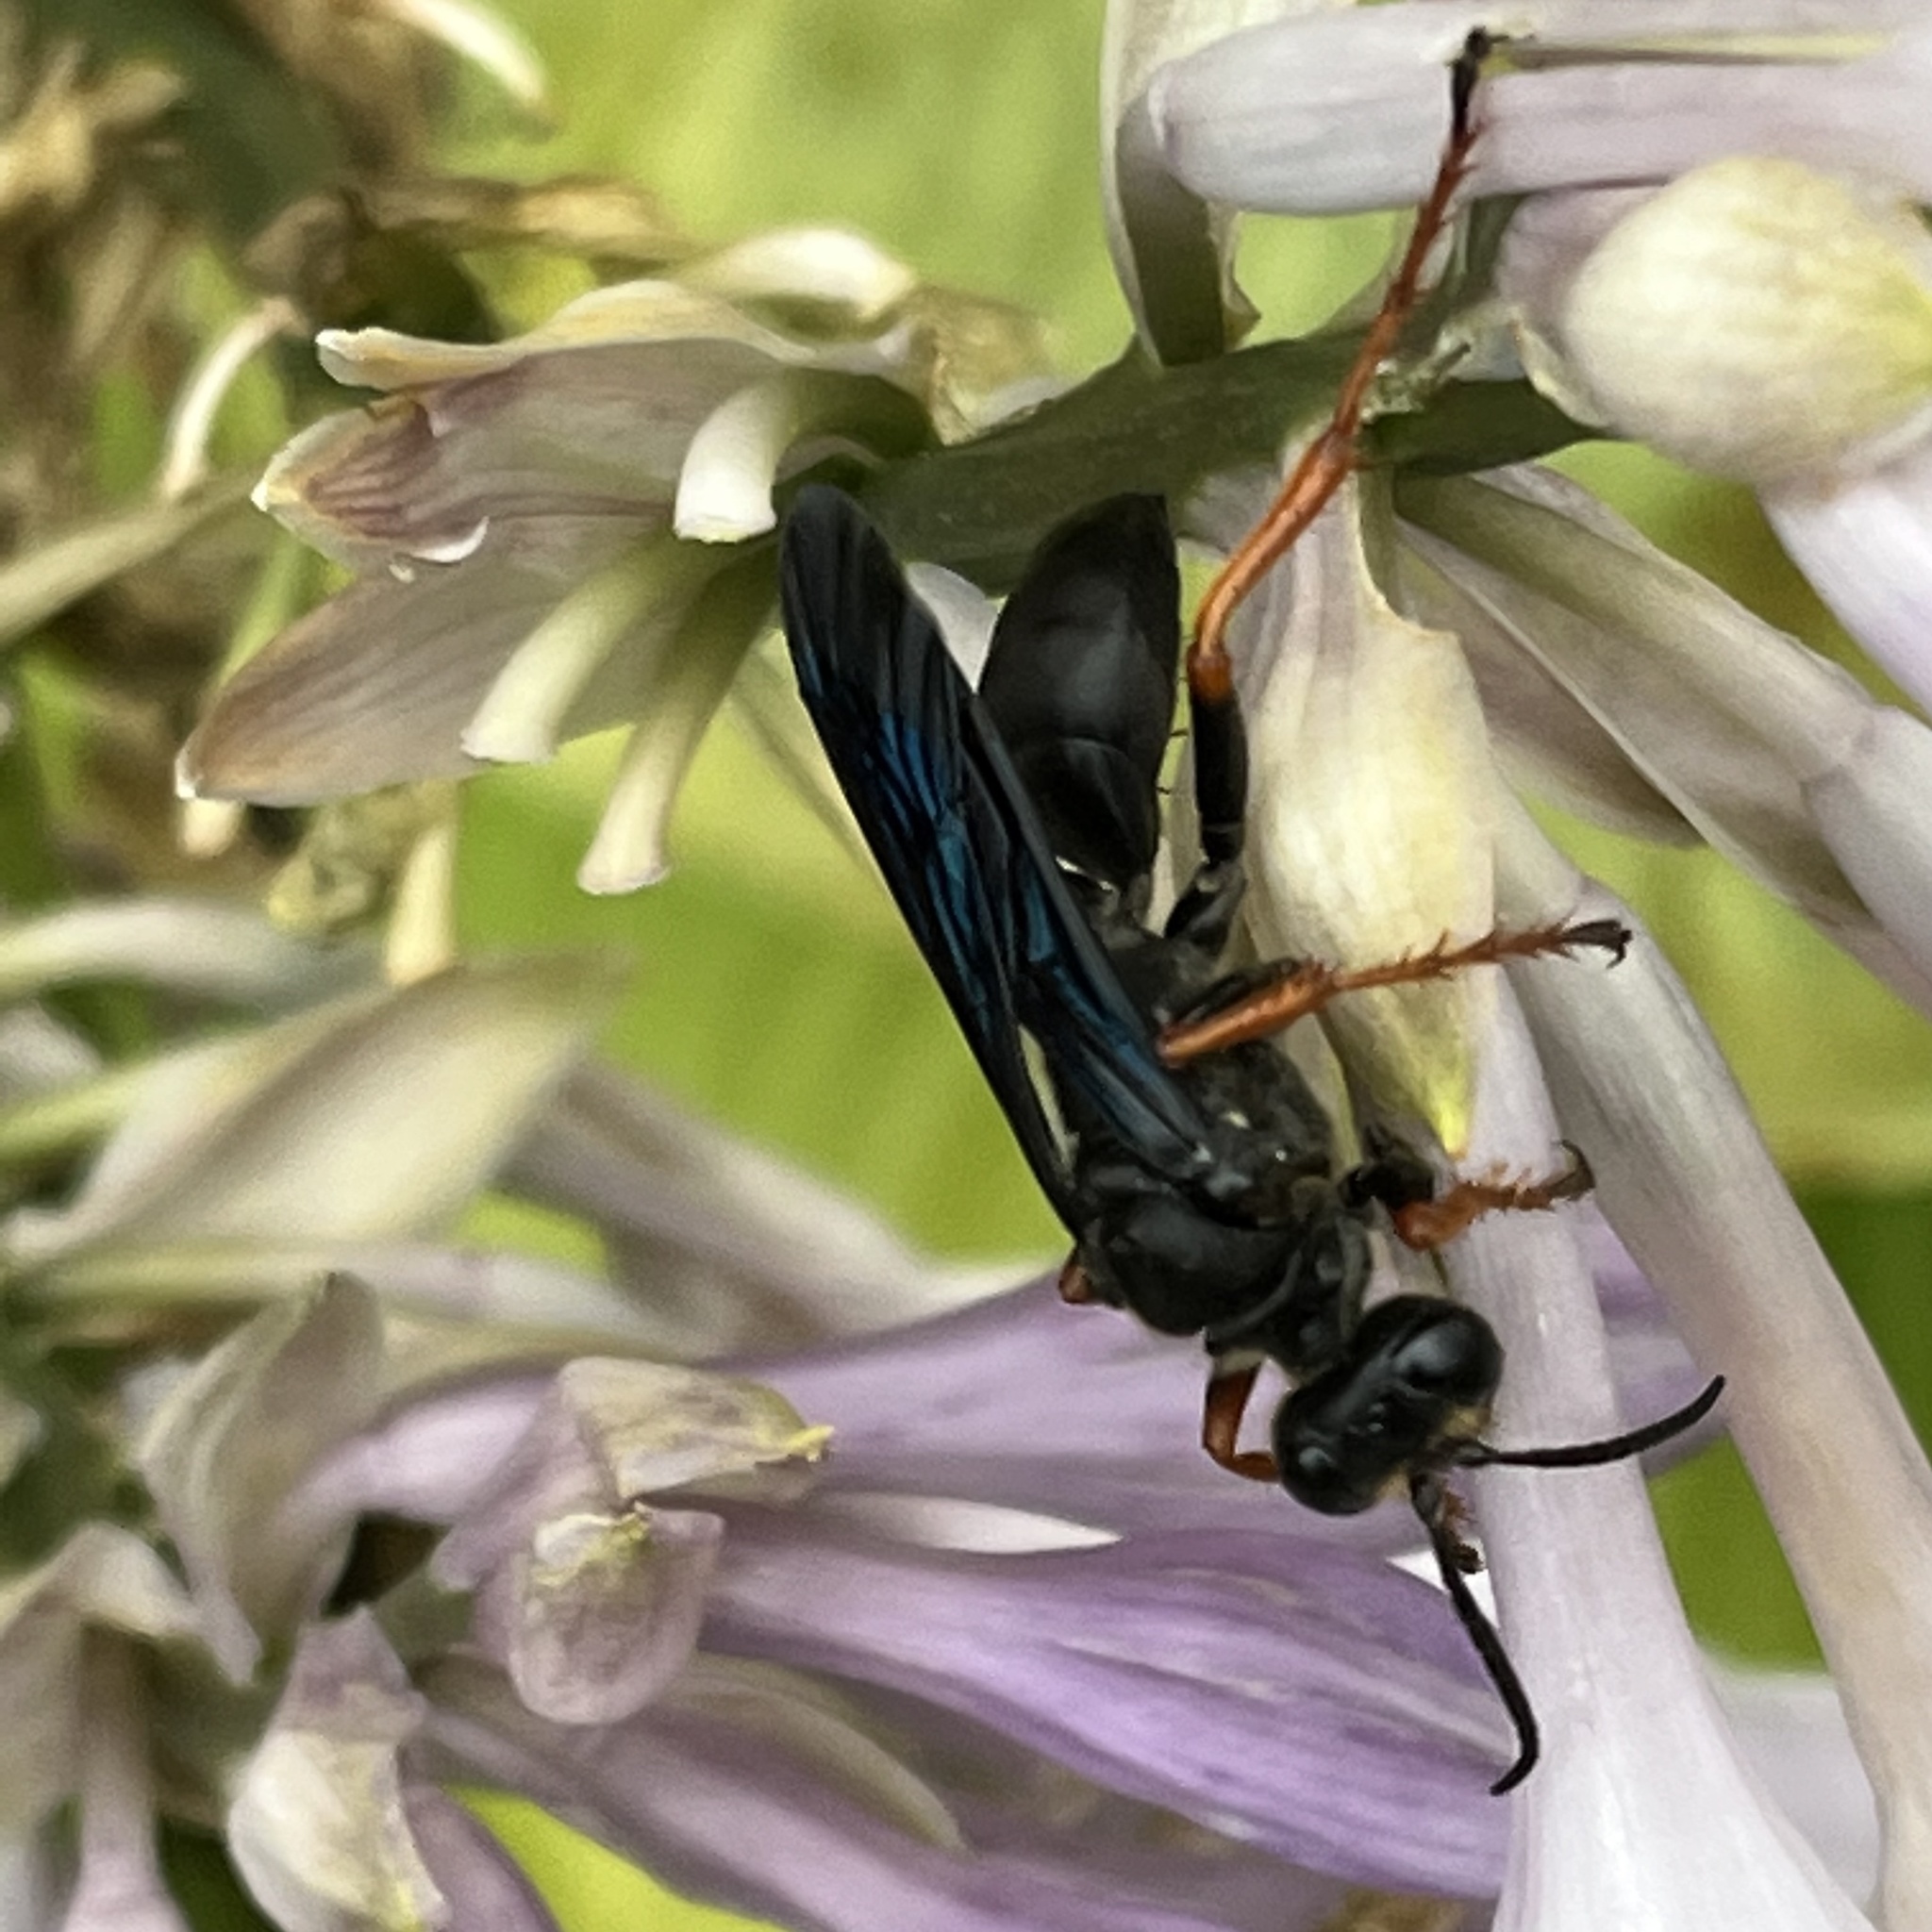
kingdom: Animalia
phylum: Arthropoda
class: Insecta
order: Hymenoptera
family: Sphecidae
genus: Sphex
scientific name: Sphex nudus
